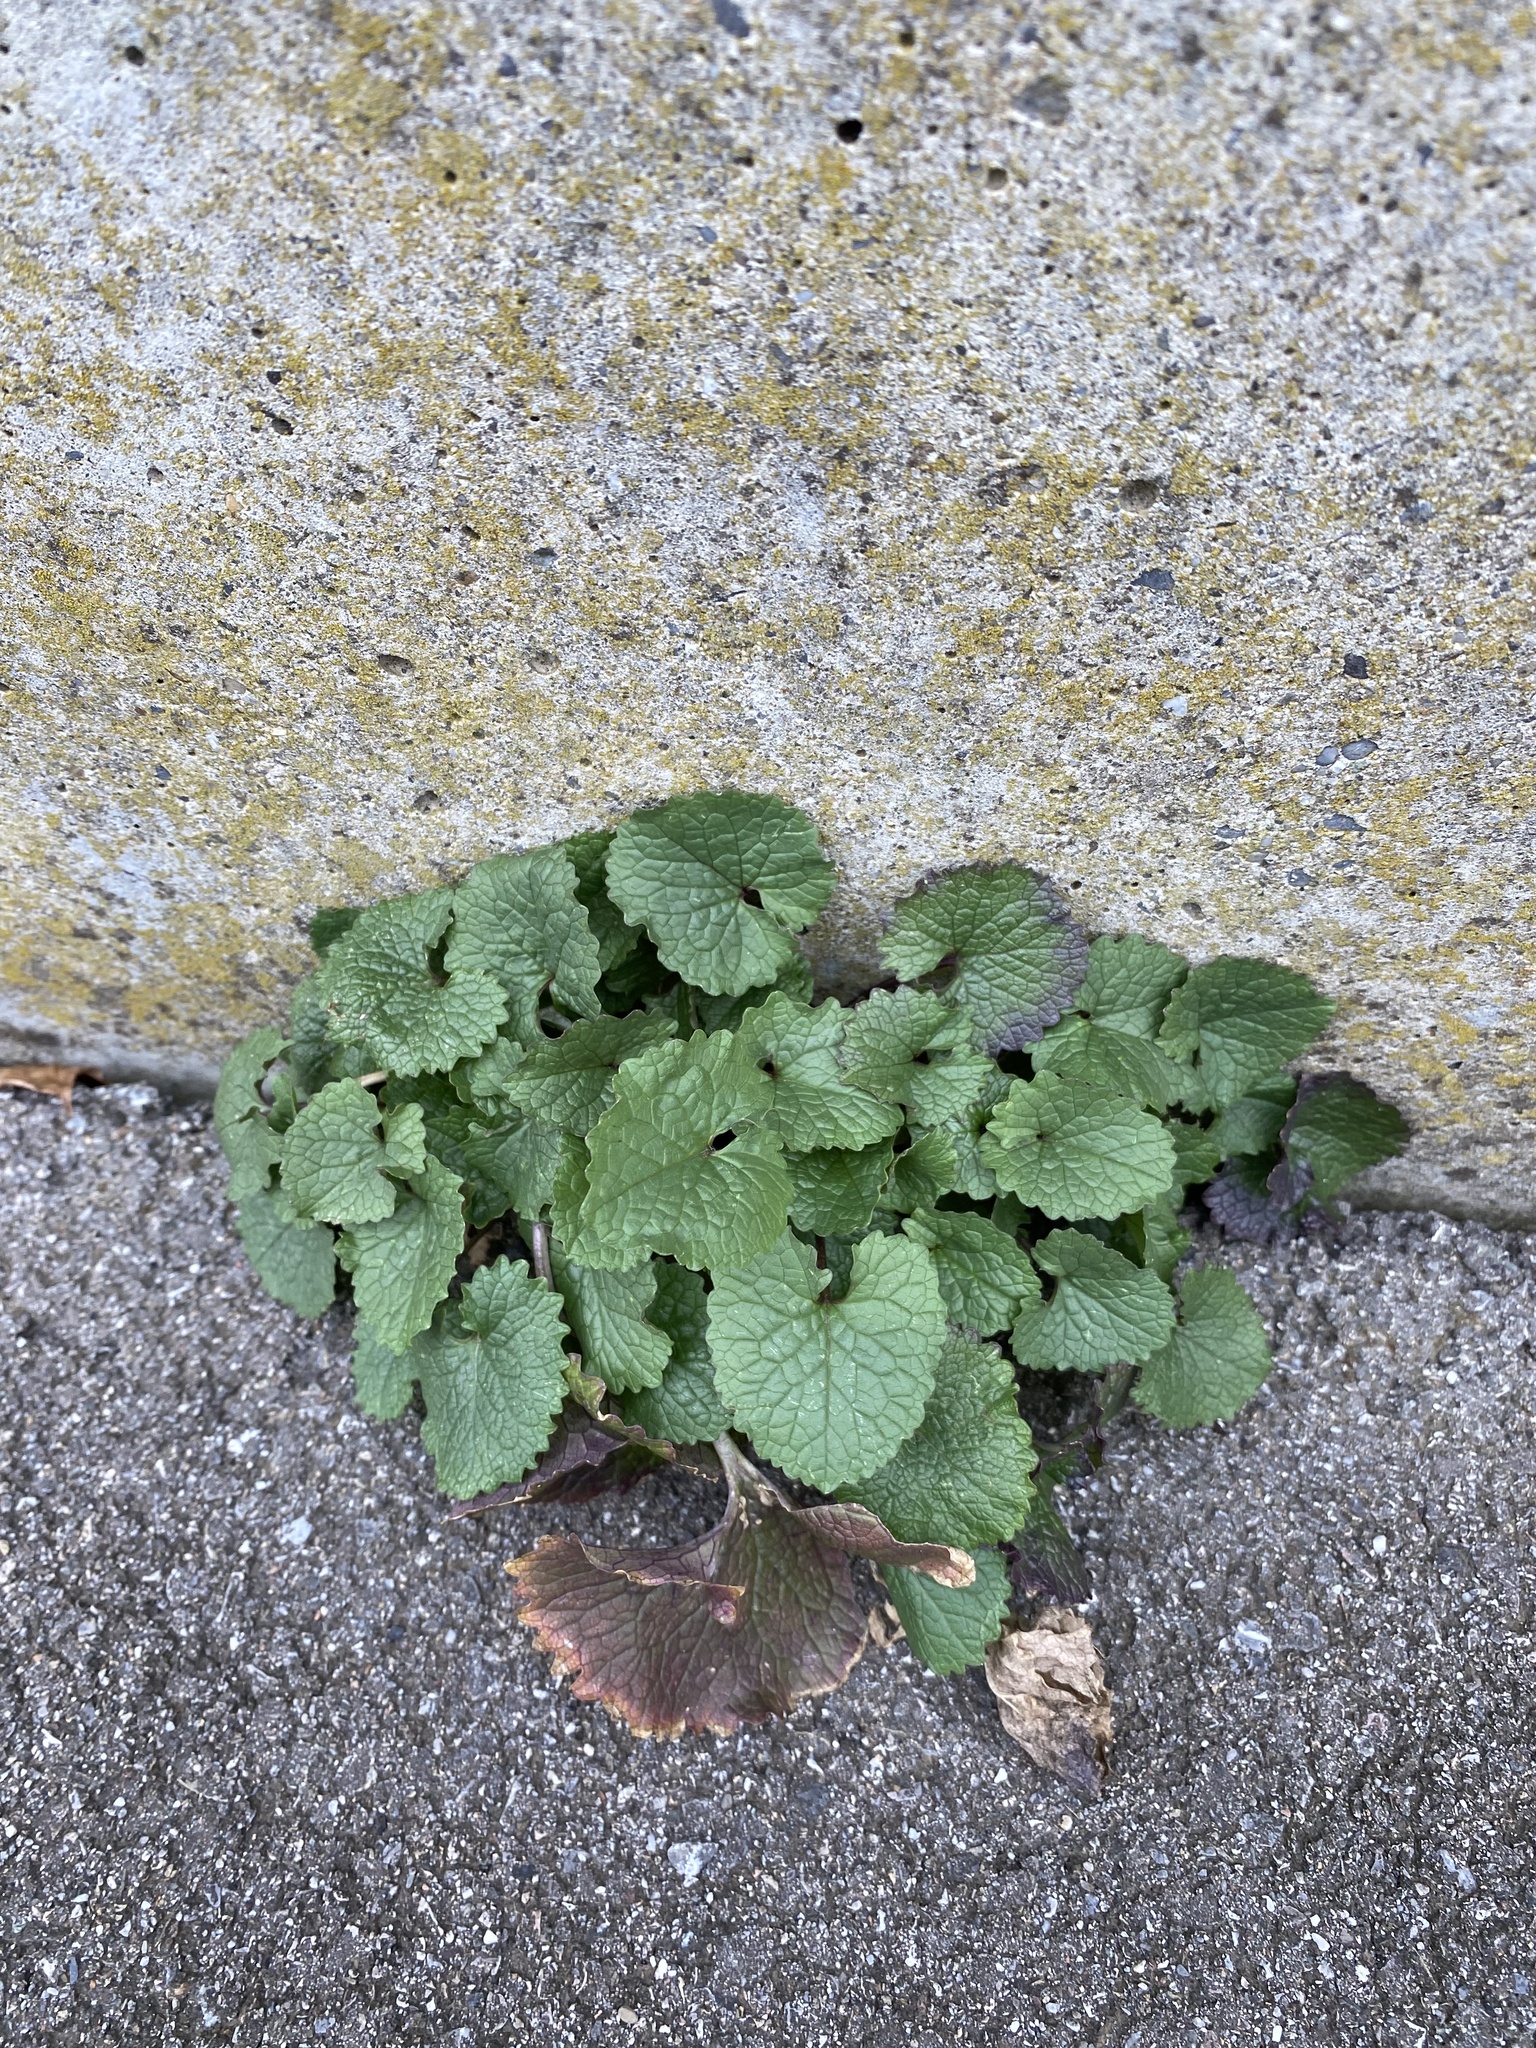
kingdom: Plantae
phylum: Tracheophyta
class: Magnoliopsida
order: Brassicales
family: Brassicaceae
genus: Alliaria
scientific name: Alliaria petiolata
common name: Garlic mustard
